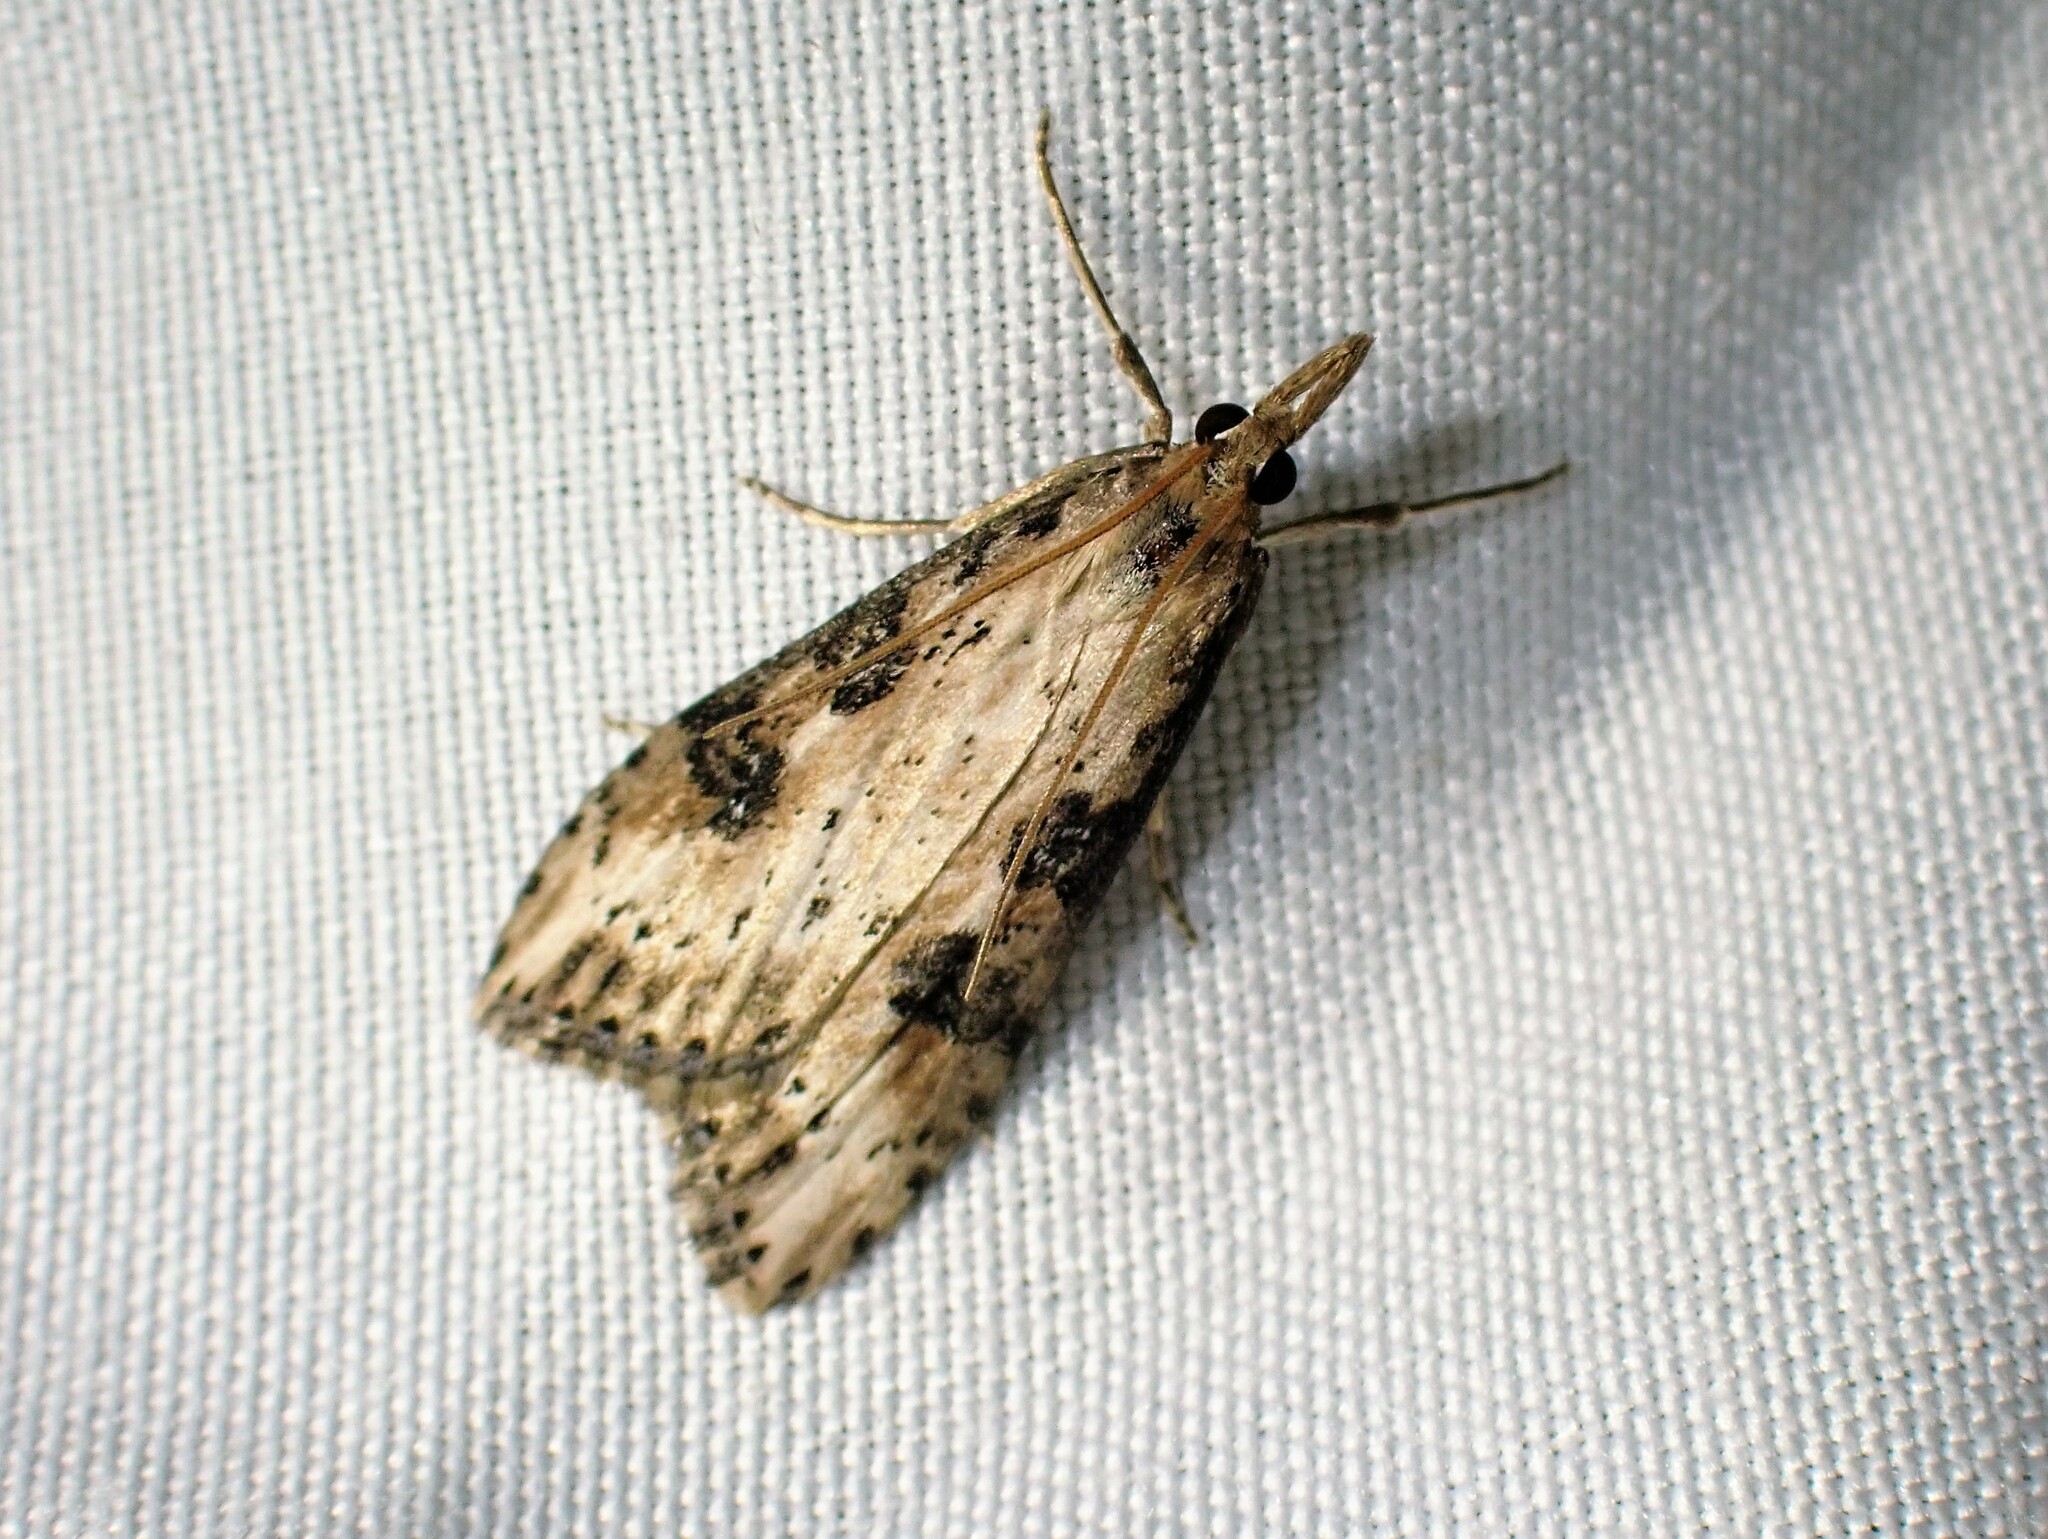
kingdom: Animalia
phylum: Arthropoda
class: Insecta
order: Lepidoptera
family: Crambidae
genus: Udea
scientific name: Udea itysalis
